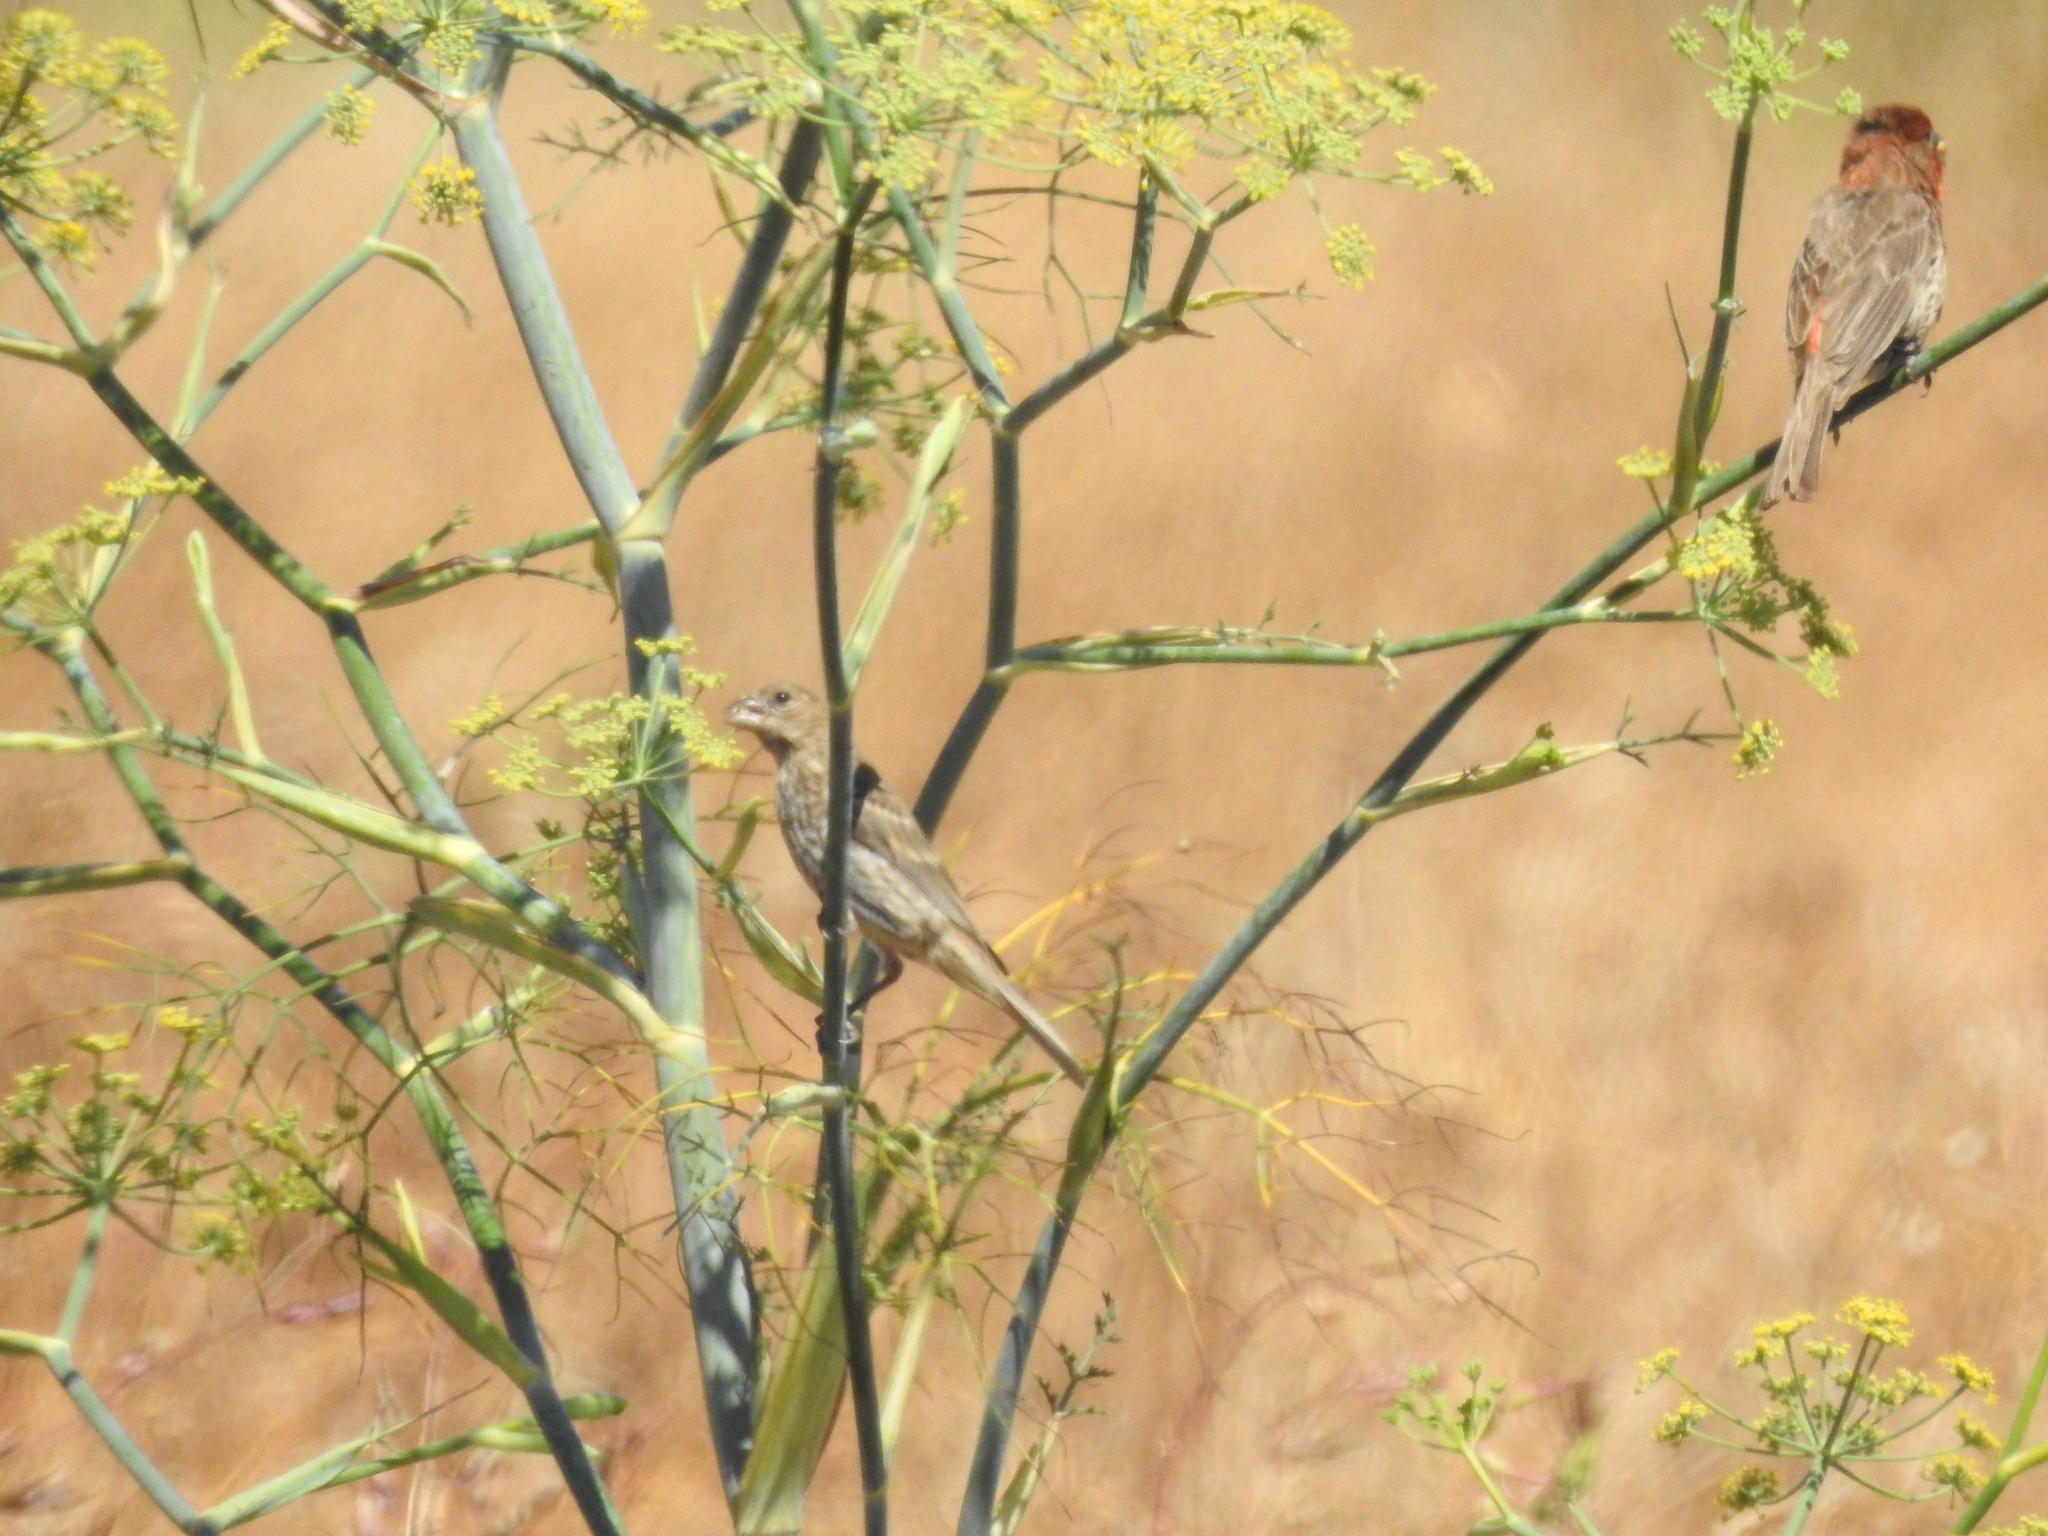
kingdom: Animalia
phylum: Chordata
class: Aves
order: Passeriformes
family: Fringillidae
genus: Haemorhous
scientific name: Haemorhous mexicanus
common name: House finch
